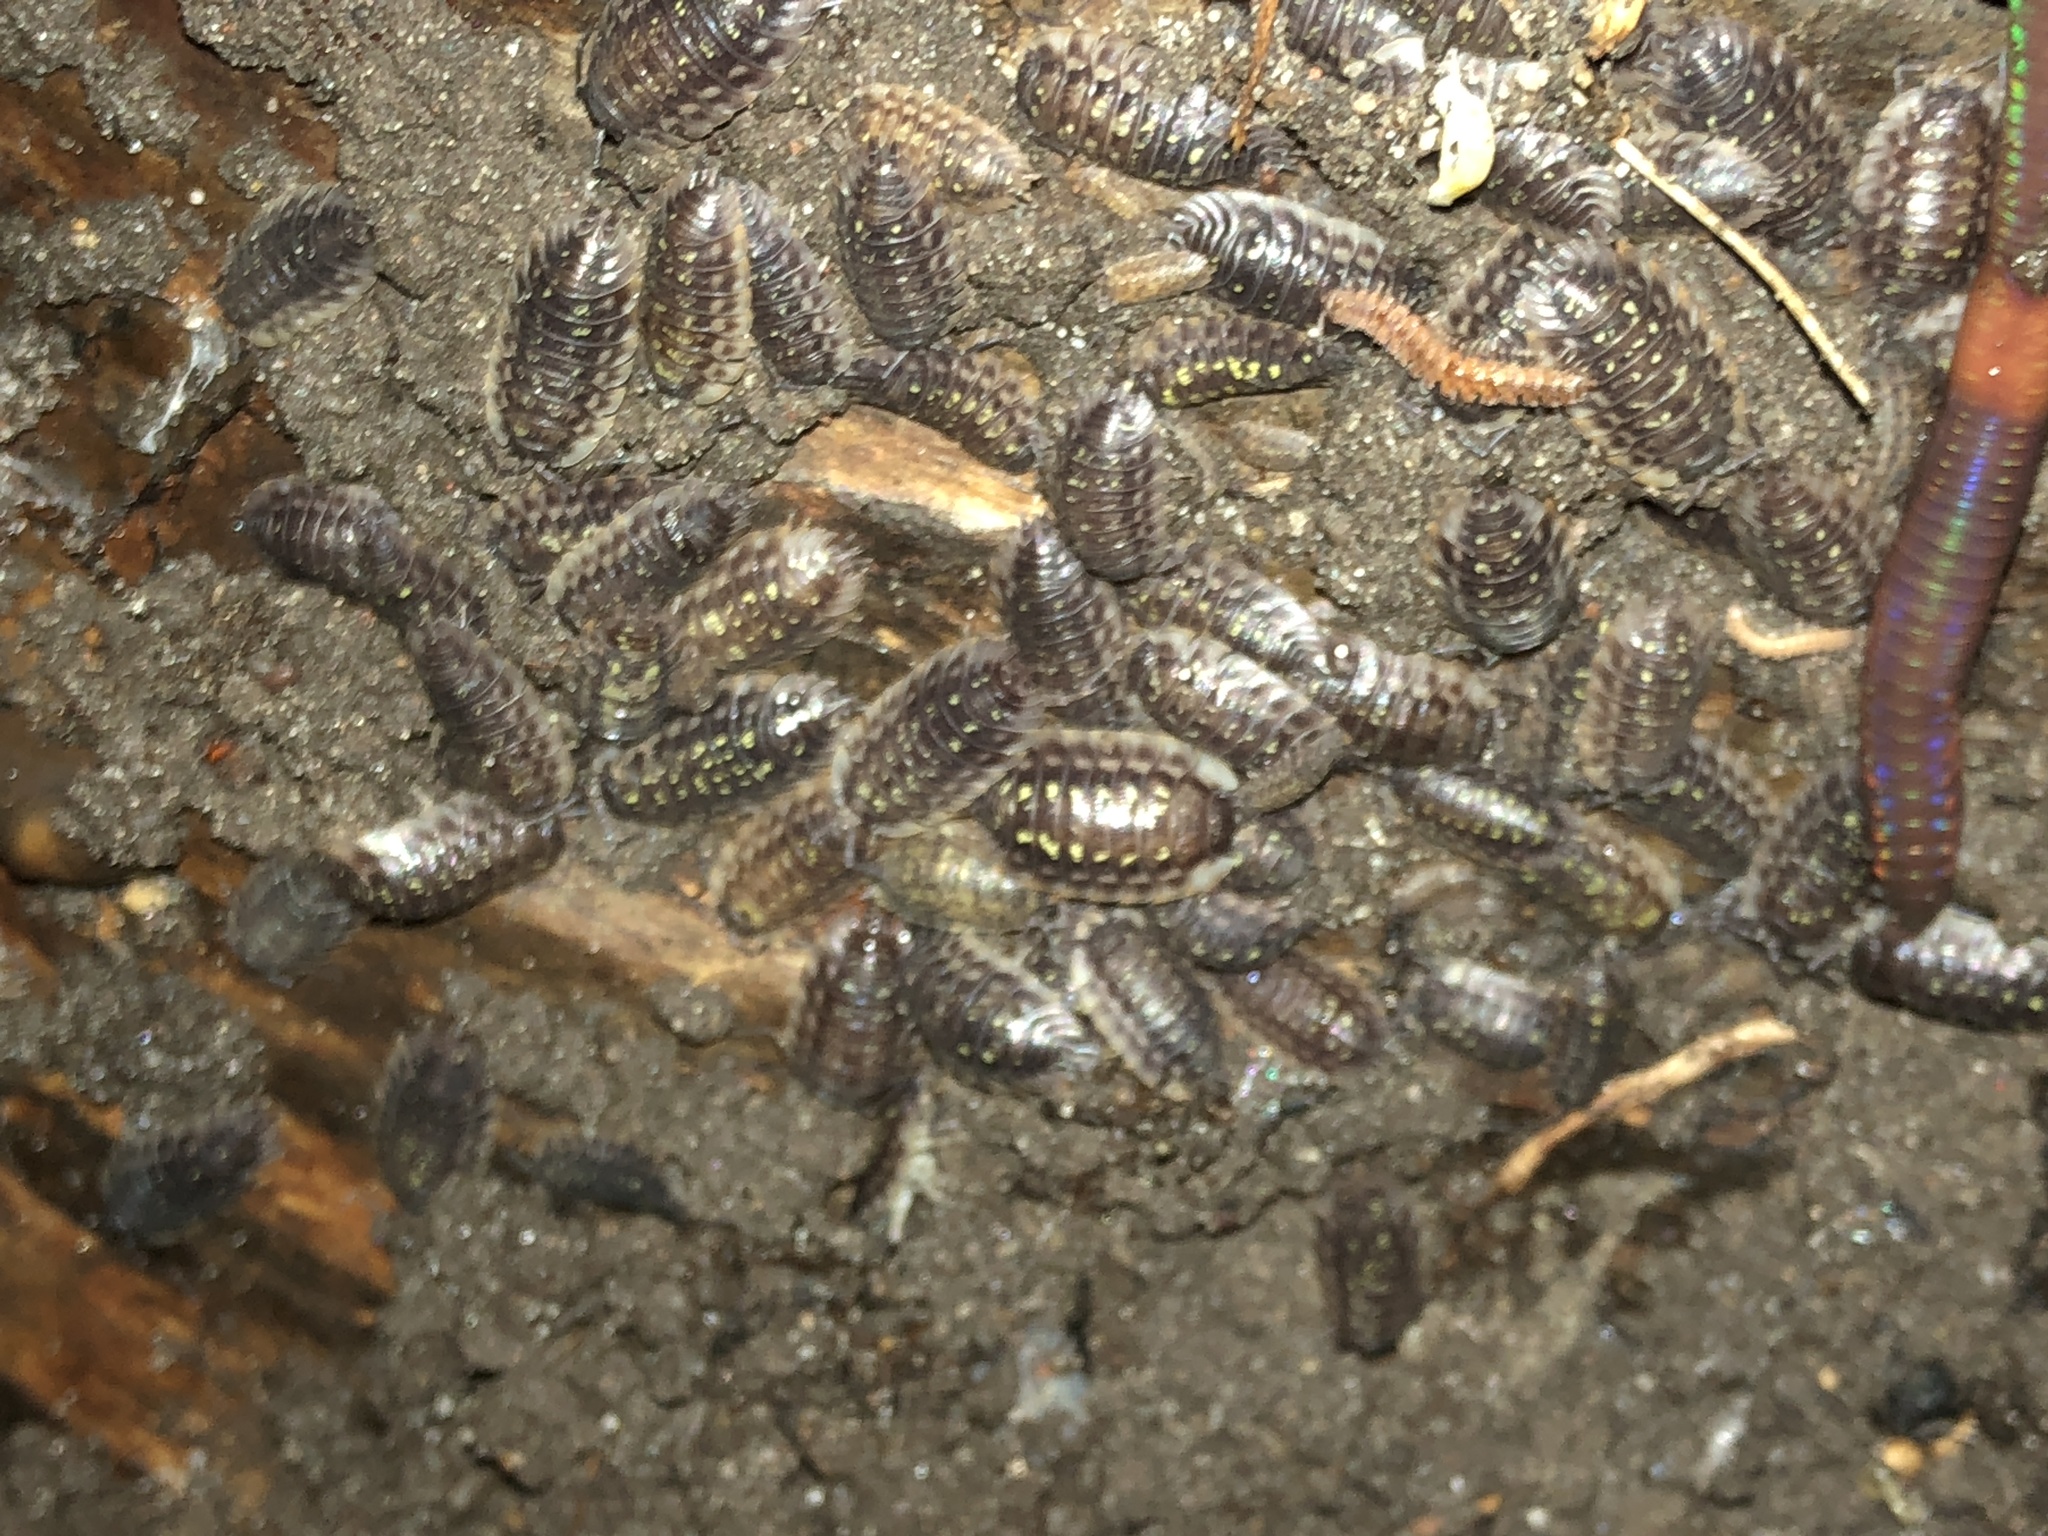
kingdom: Animalia
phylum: Arthropoda
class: Malacostraca
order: Isopoda
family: Oniscidae
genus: Oniscus
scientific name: Oniscus asellus
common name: Common shiny woodlouse
